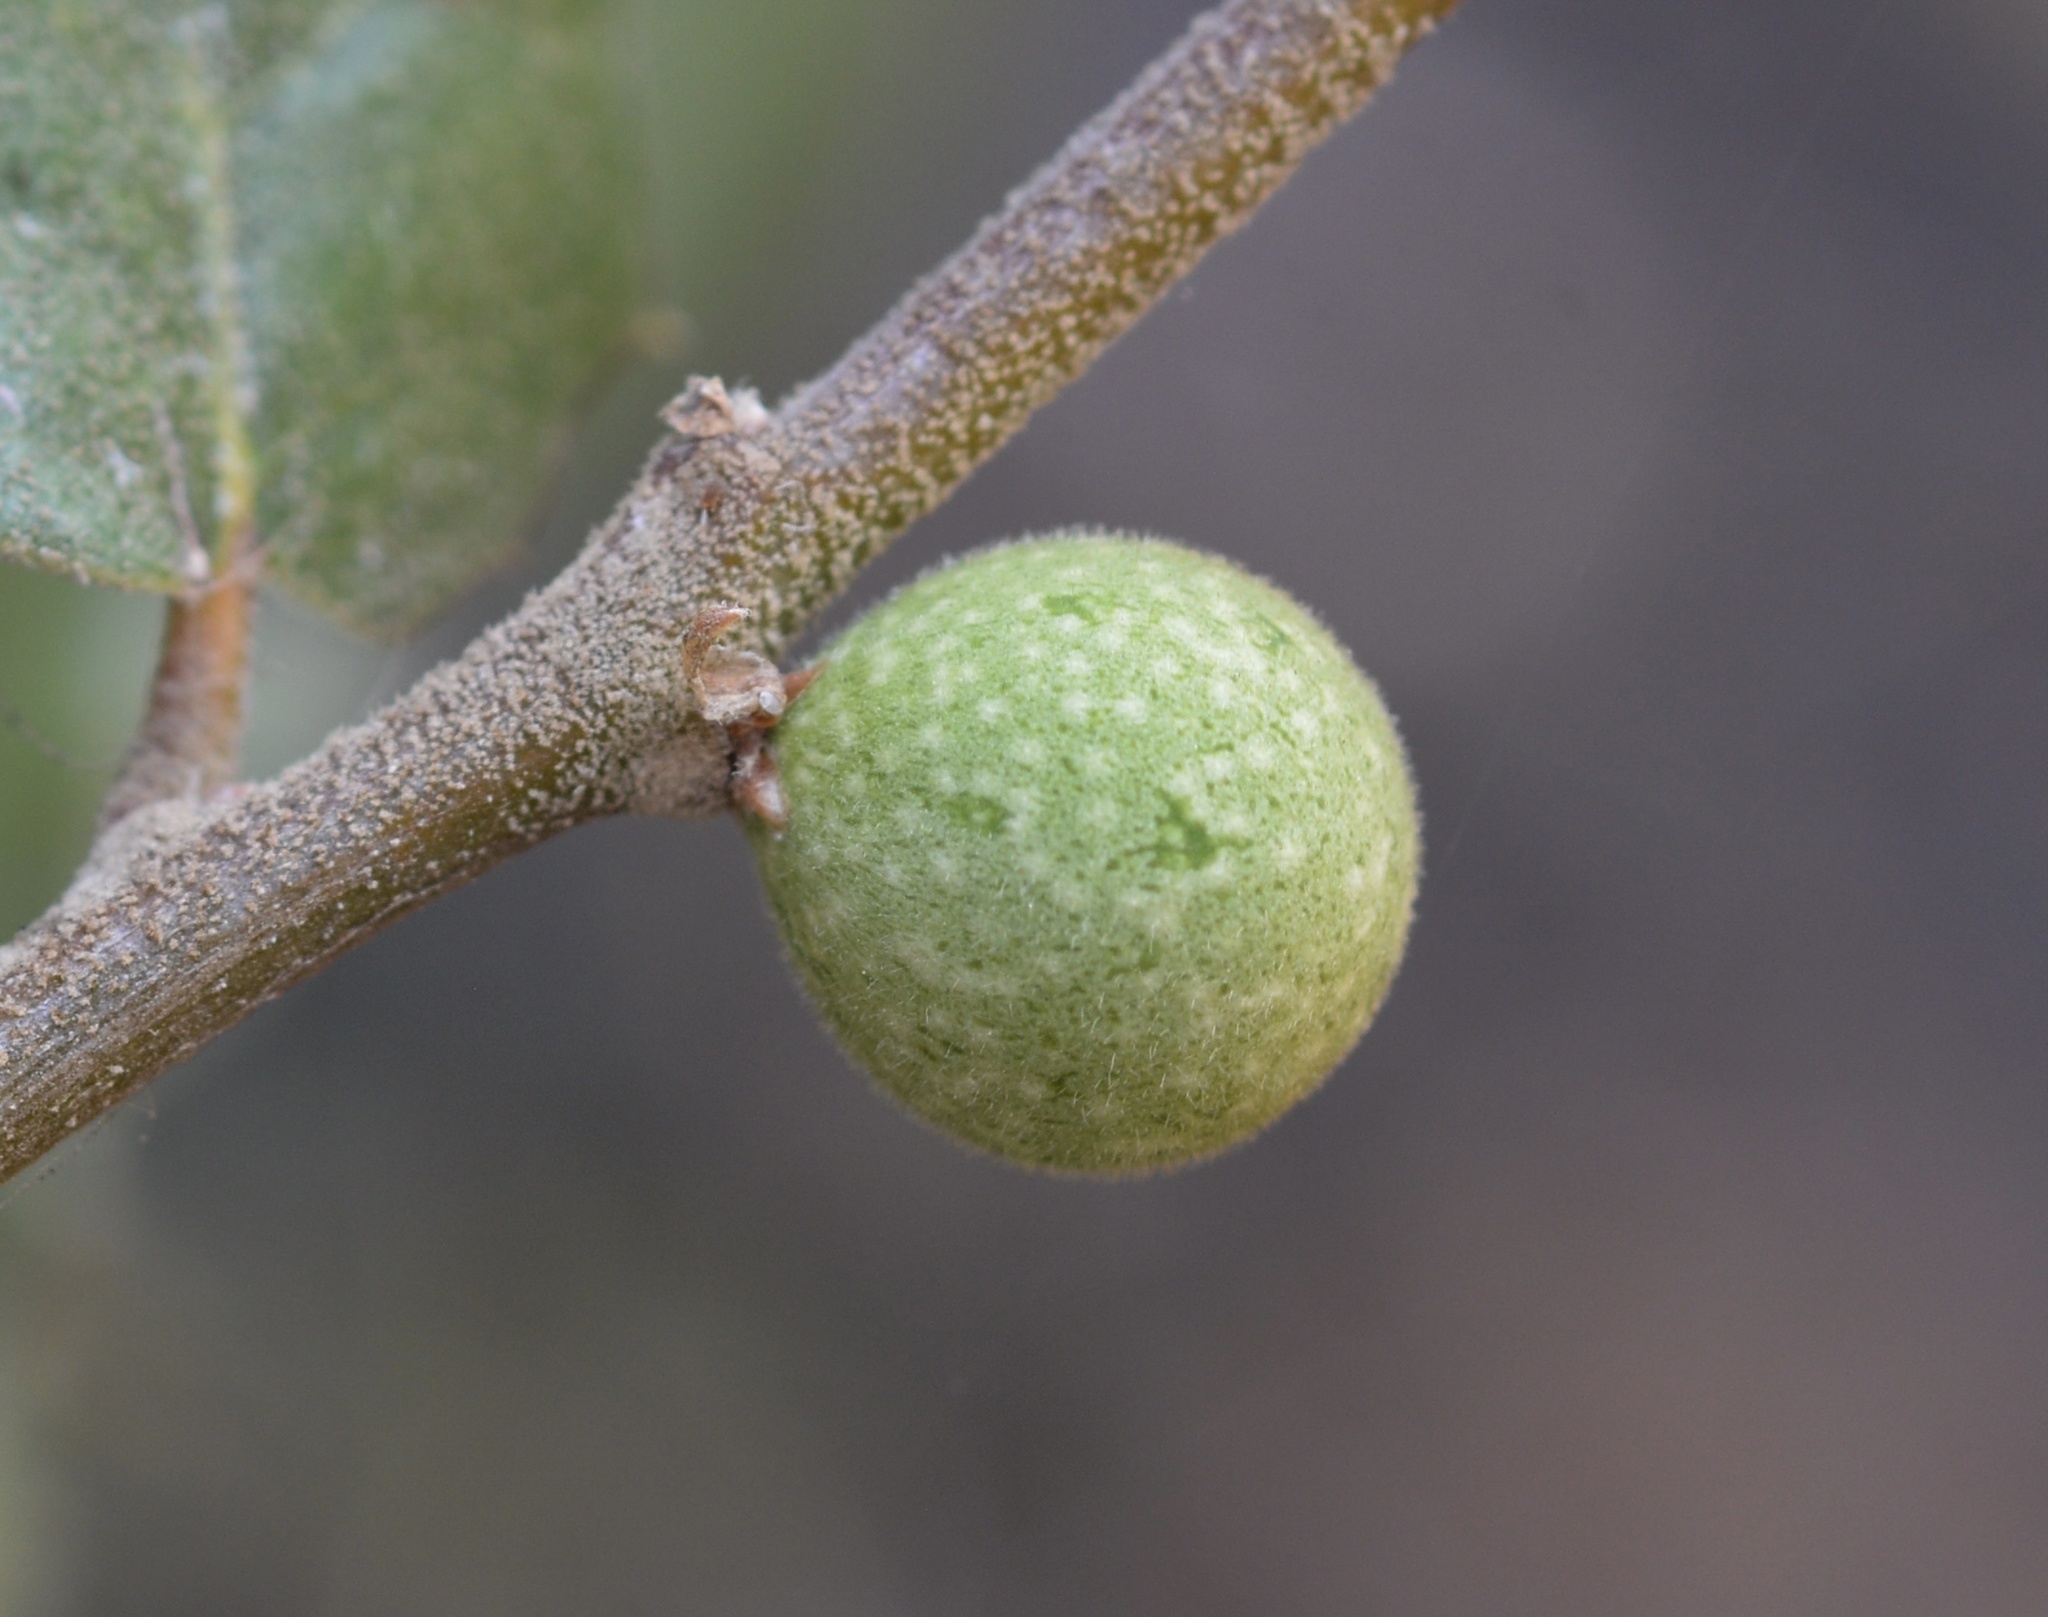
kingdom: Animalia
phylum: Arthropoda
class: Insecta
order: Hymenoptera
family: Cynipidae
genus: Callirhytis
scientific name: Callirhytis
